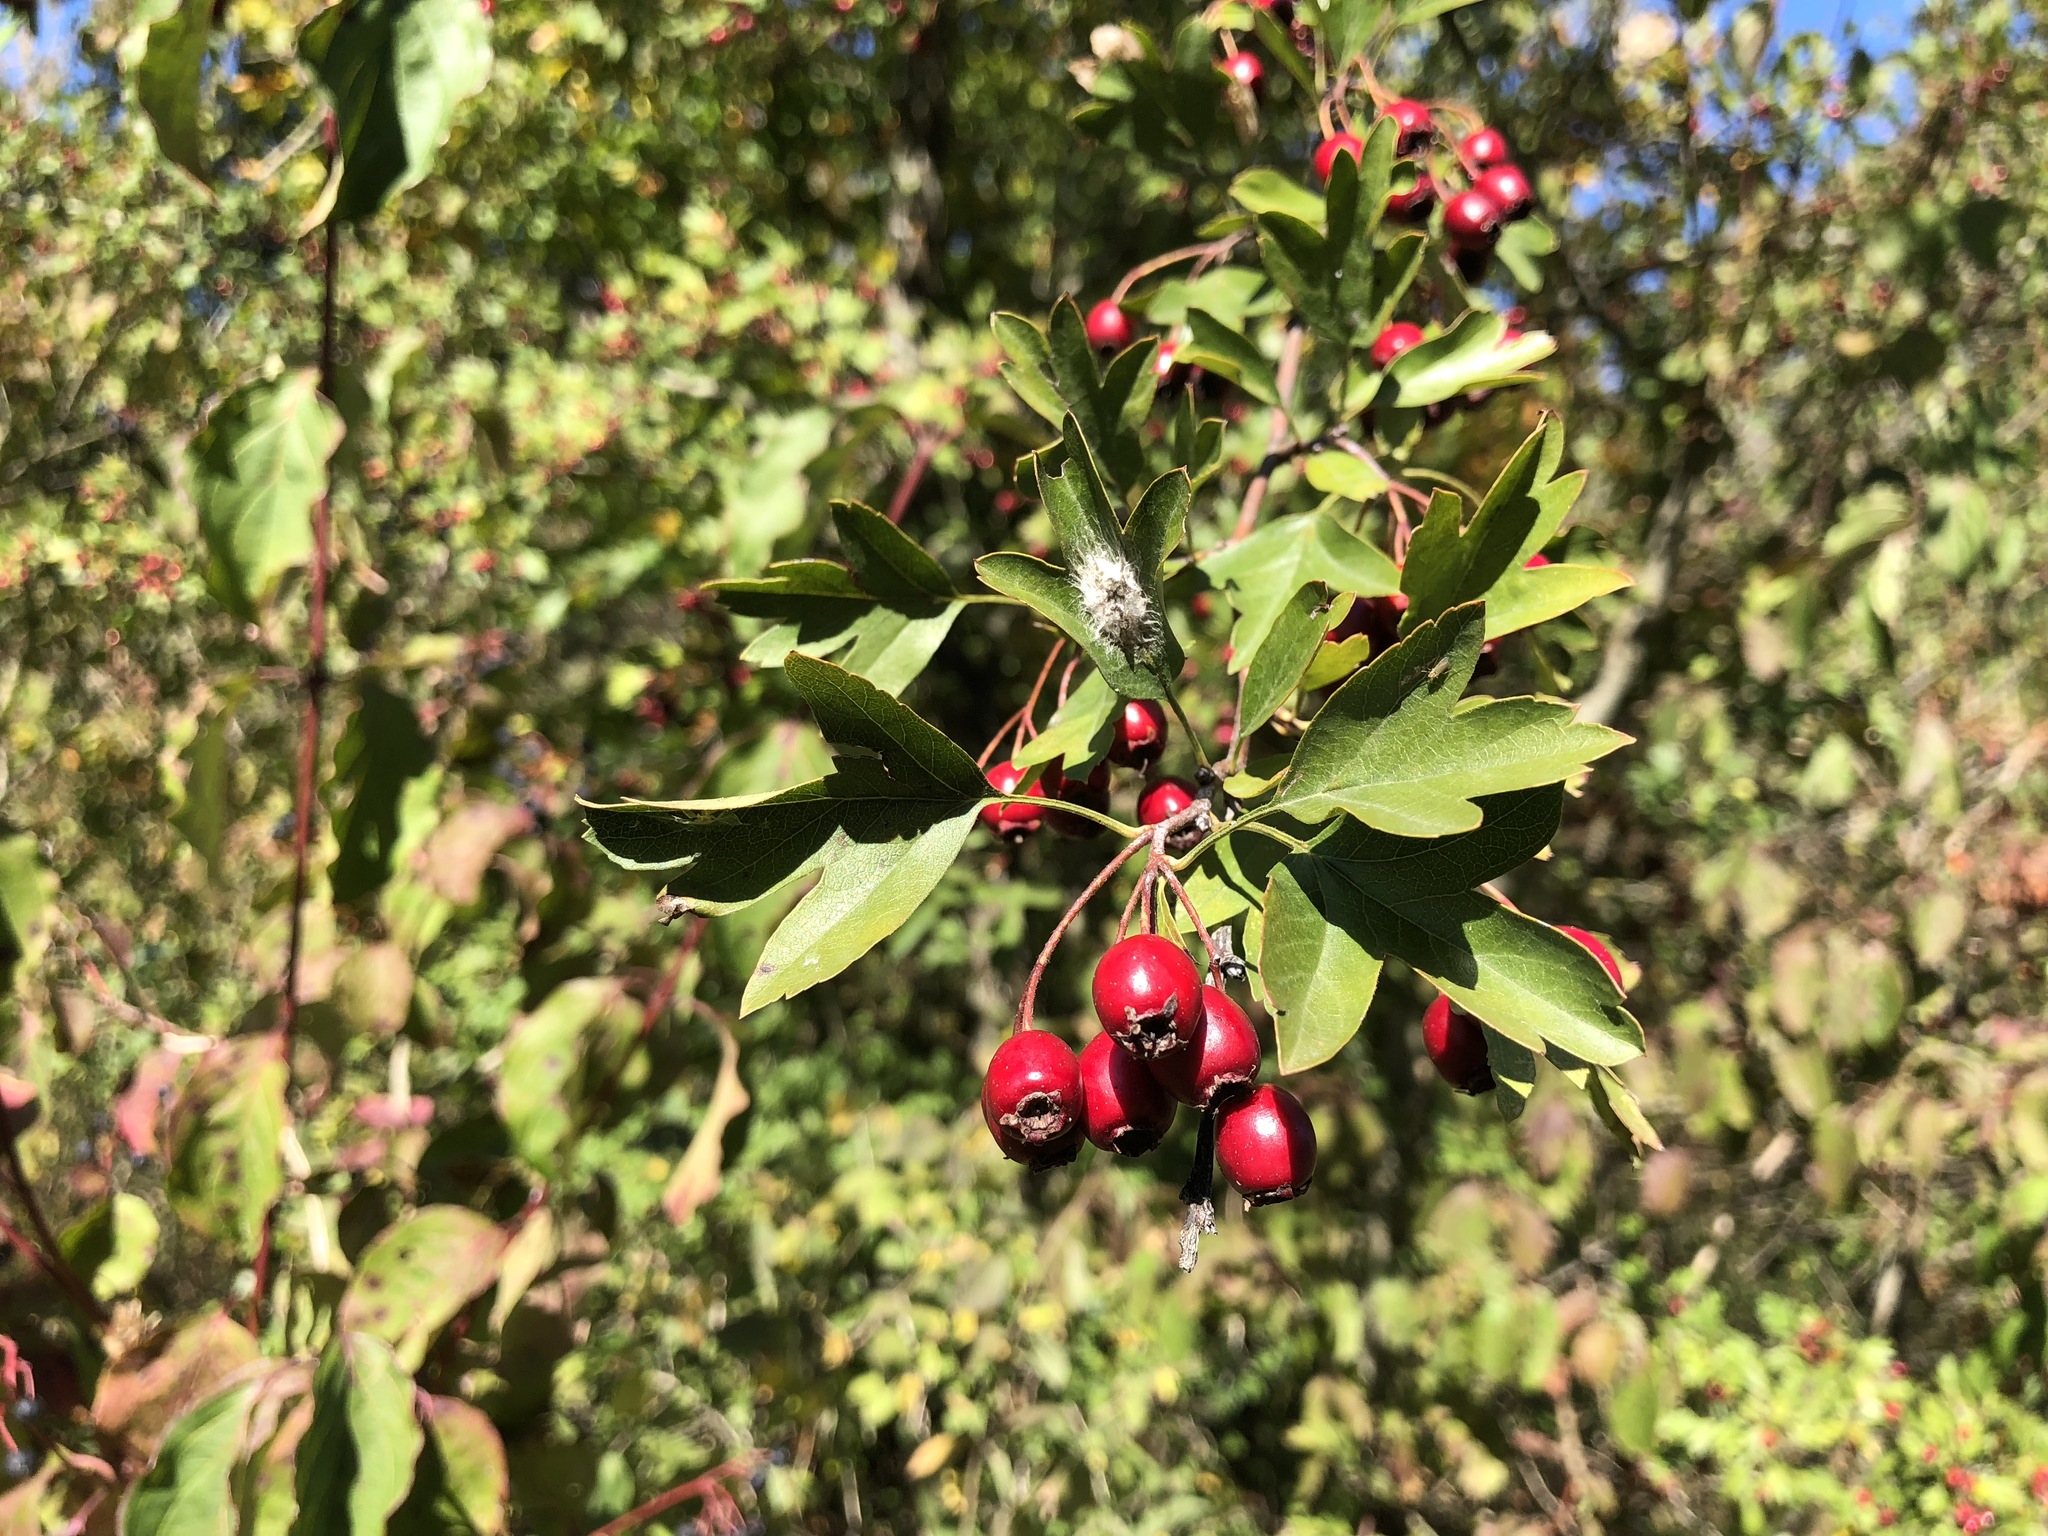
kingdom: Plantae
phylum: Tracheophyta
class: Magnoliopsida
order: Rosales
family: Rosaceae
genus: Crataegus
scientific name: Crataegus monogyna
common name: Hawthorn
